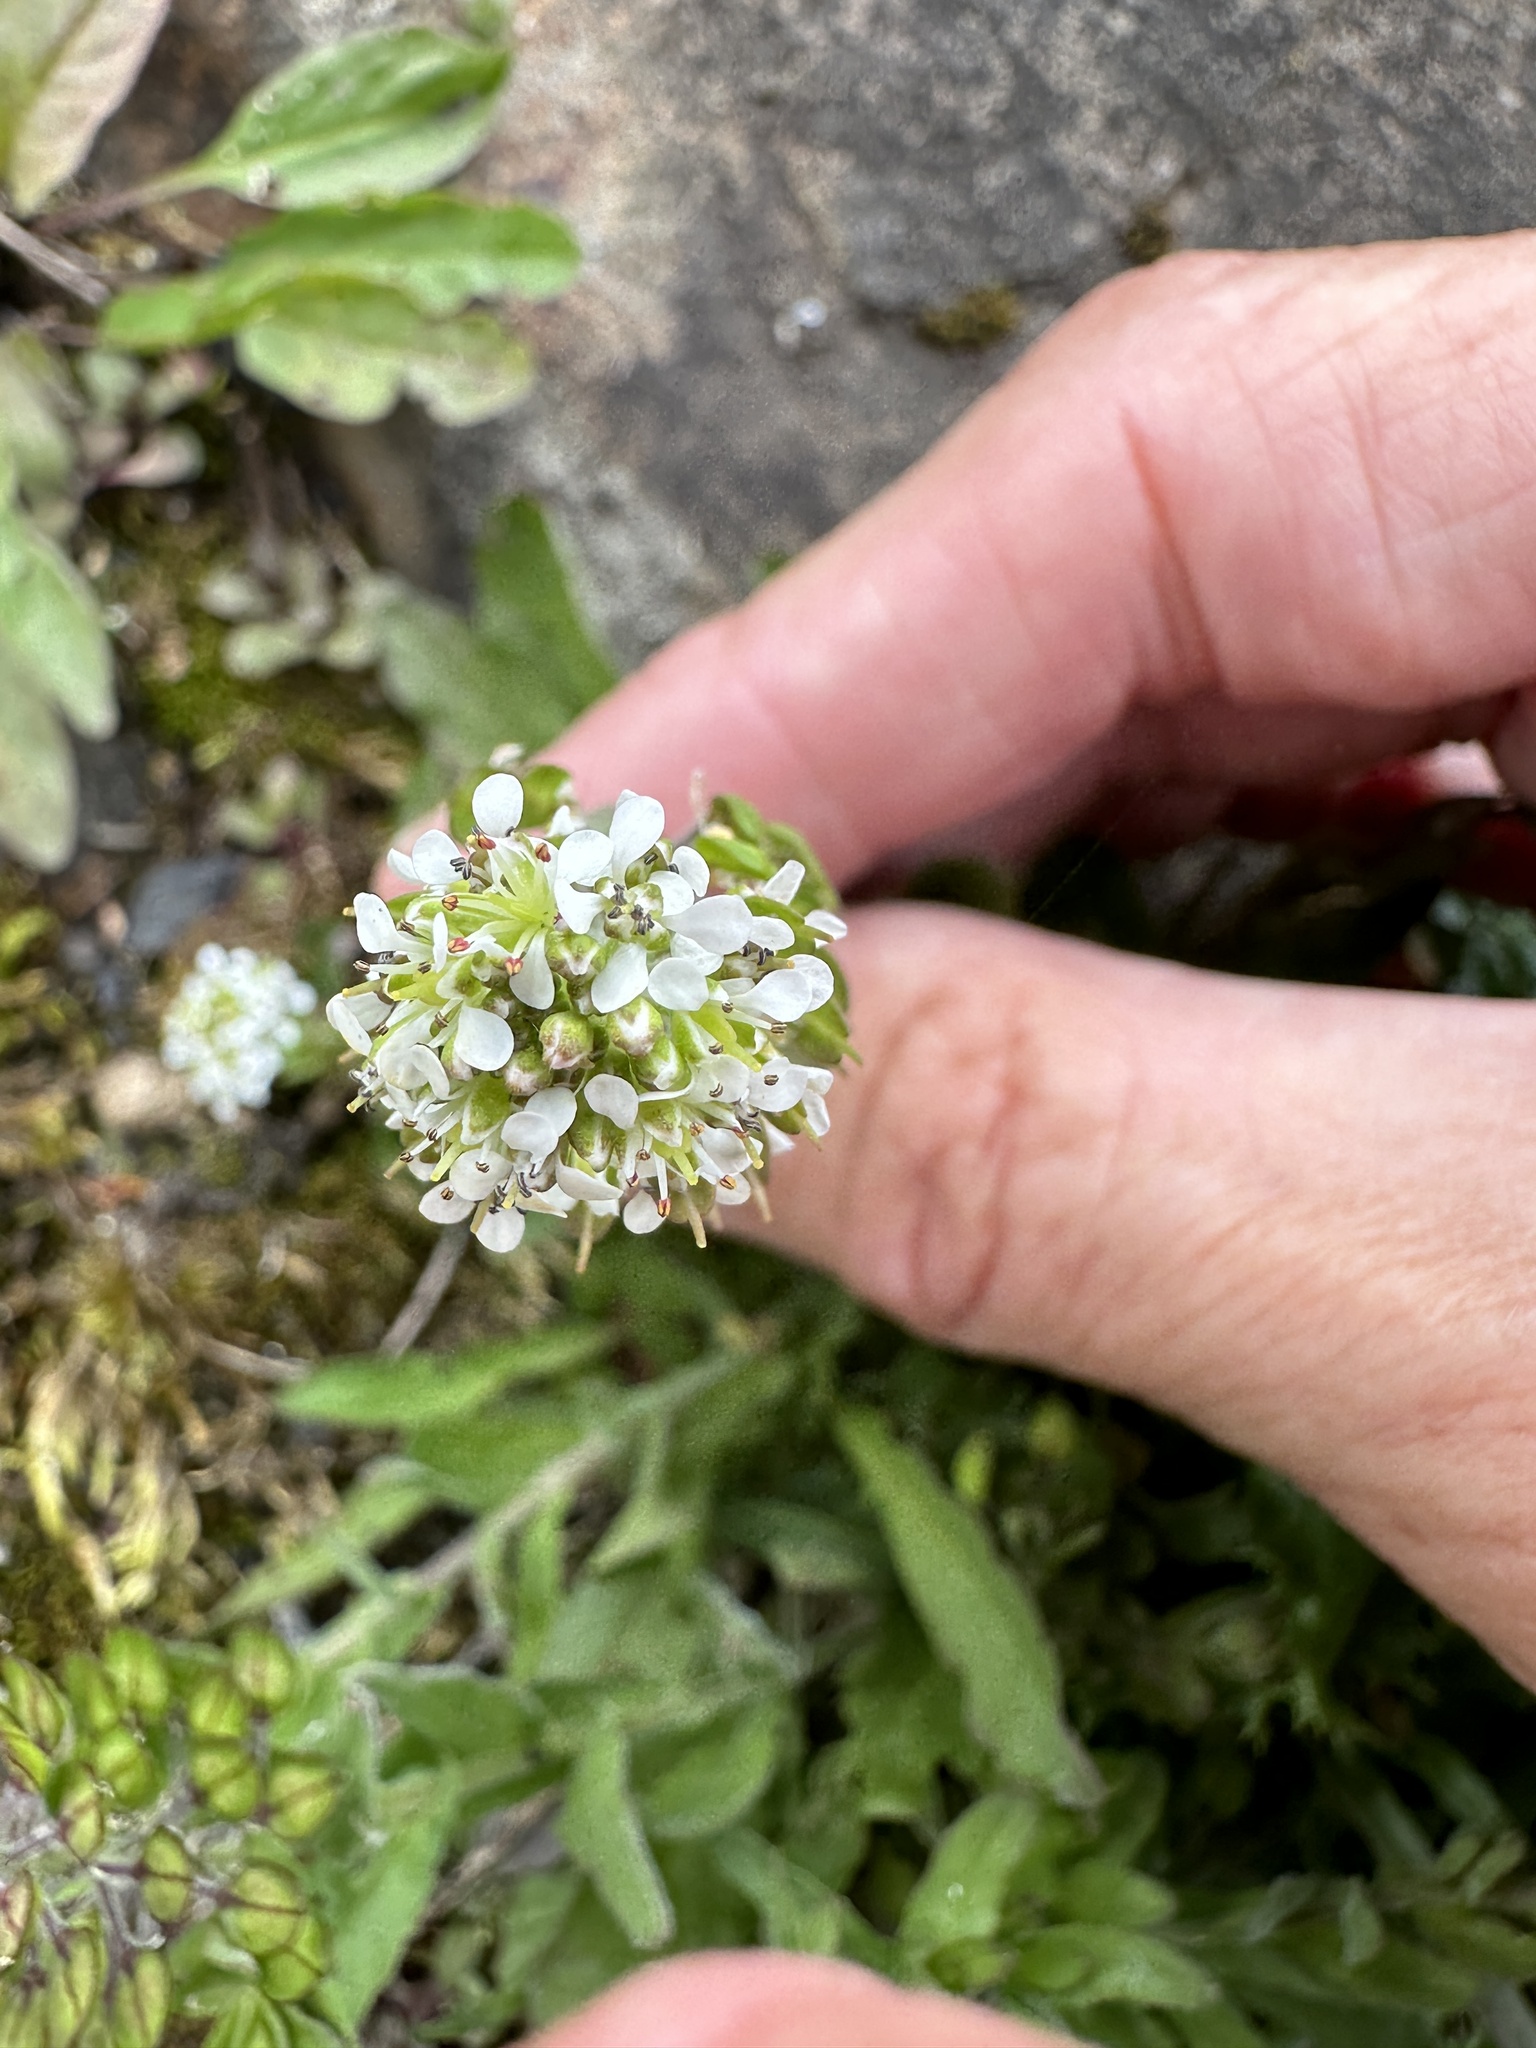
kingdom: Plantae
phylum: Tracheophyta
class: Magnoliopsida
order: Brassicales
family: Brassicaceae
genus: Lepidium
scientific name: Lepidium heterophyllum
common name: Smith's pepperwort
